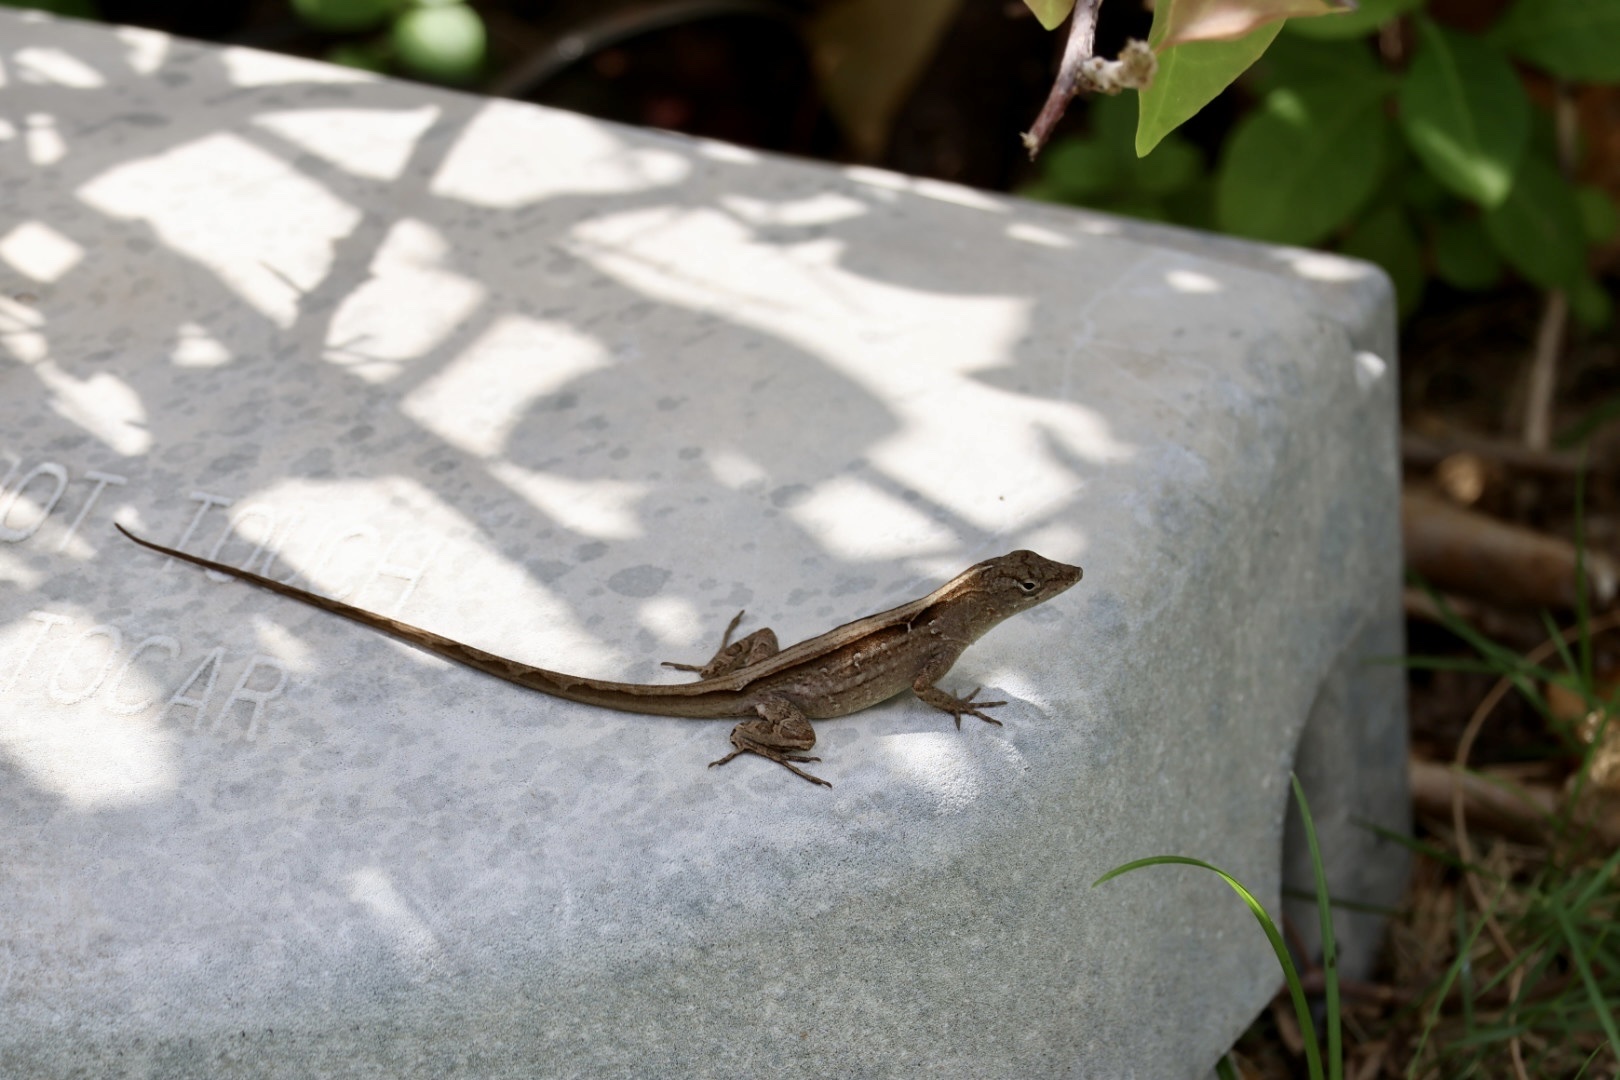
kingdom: Animalia
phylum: Chordata
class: Squamata
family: Dactyloidae
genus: Anolis
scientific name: Anolis sagrei
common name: Brown anole
